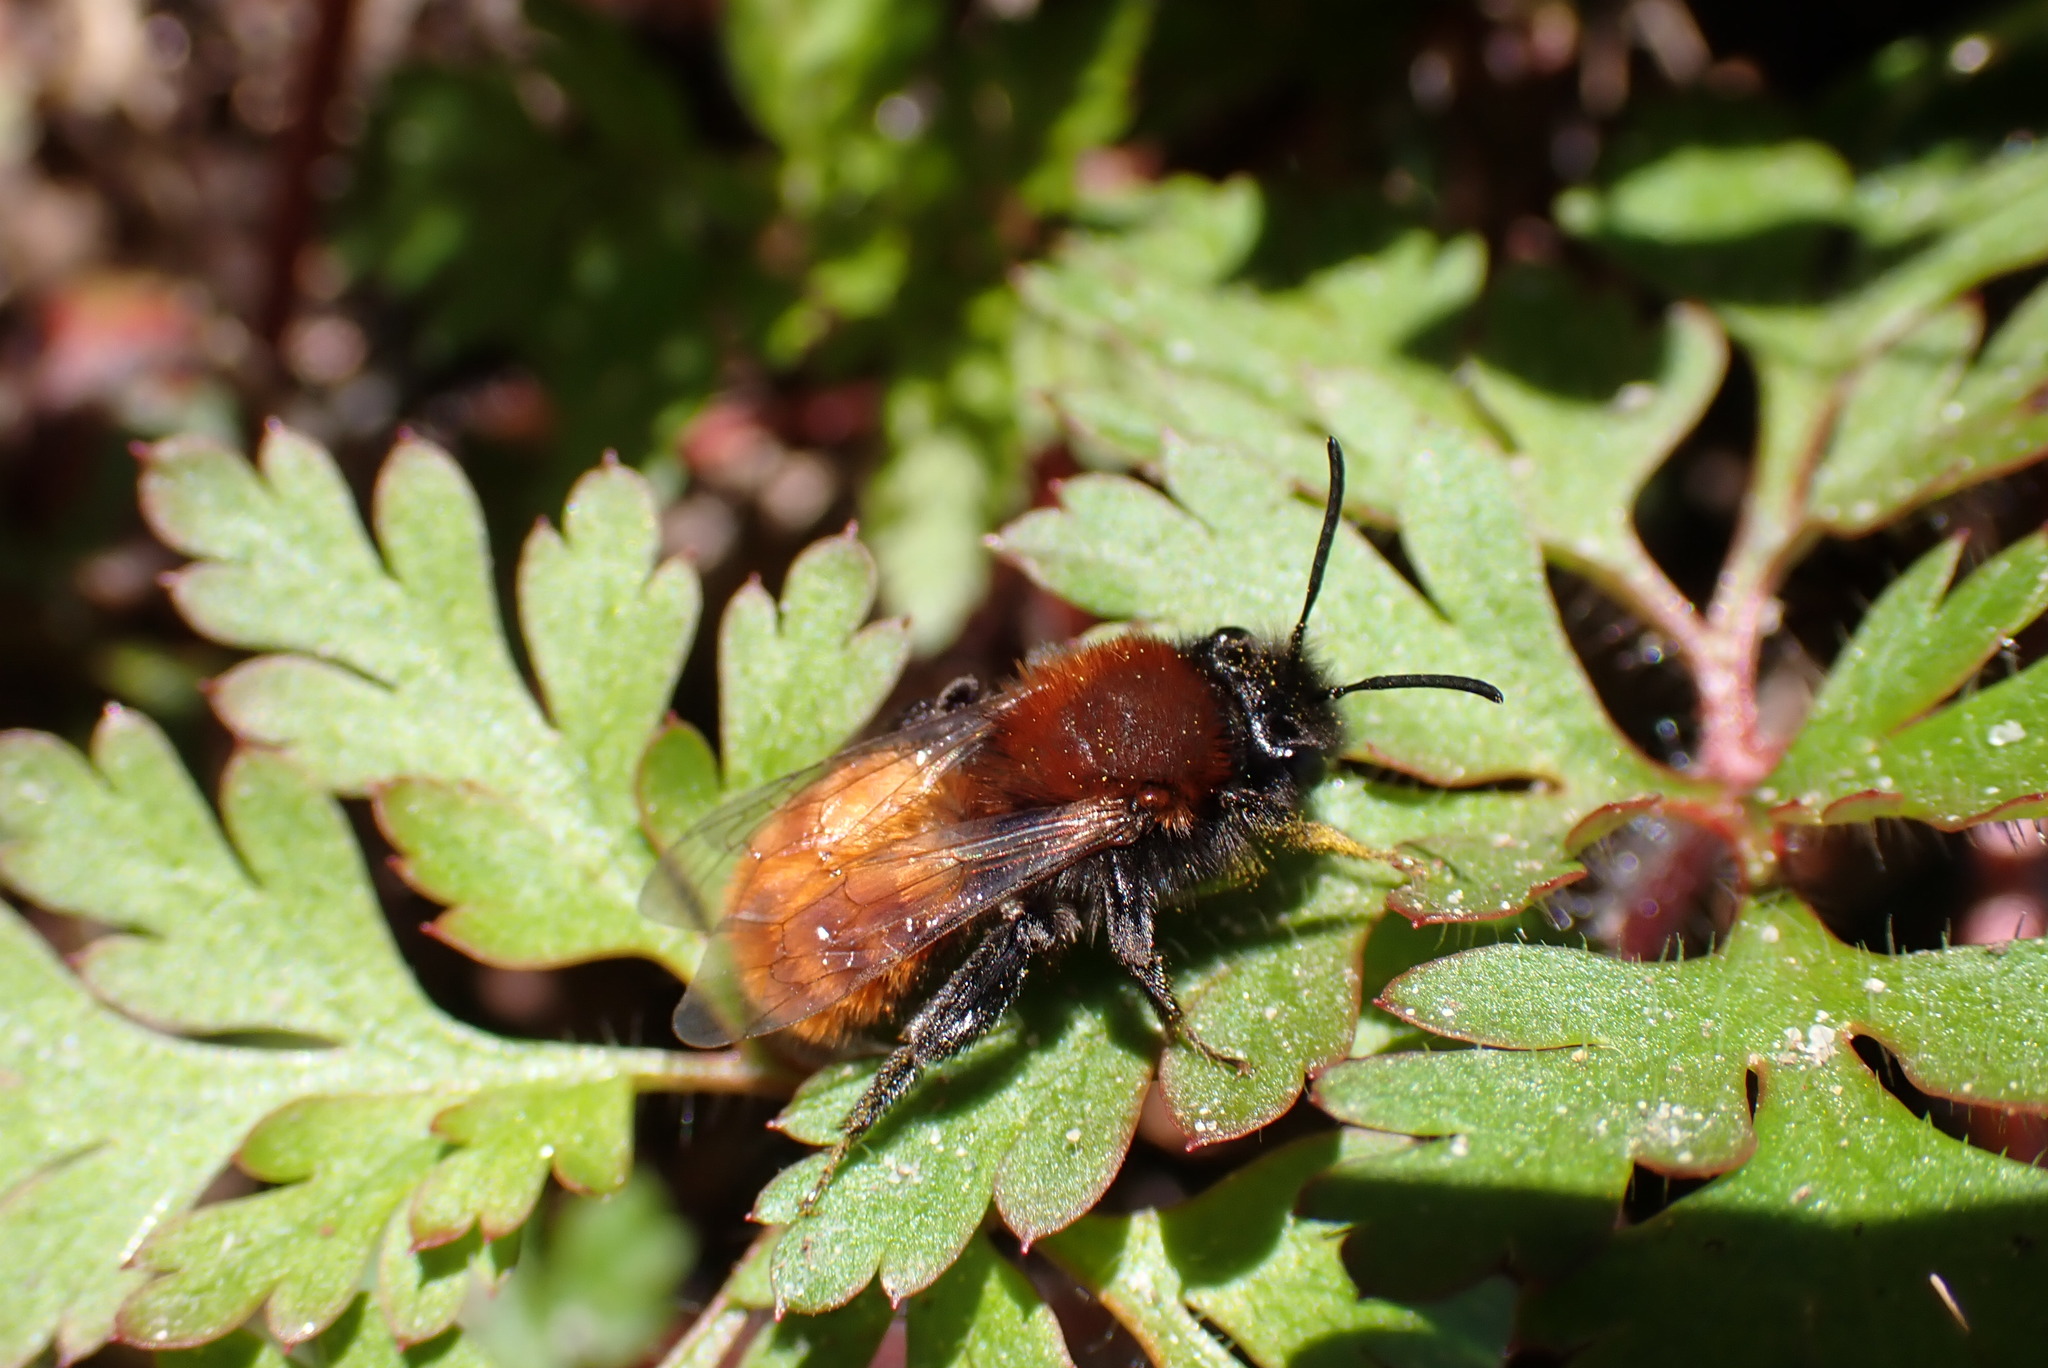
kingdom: Animalia
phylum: Arthropoda
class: Insecta
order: Hymenoptera
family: Andrenidae
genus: Andrena
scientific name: Andrena fulva
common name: Tawny mining bee
